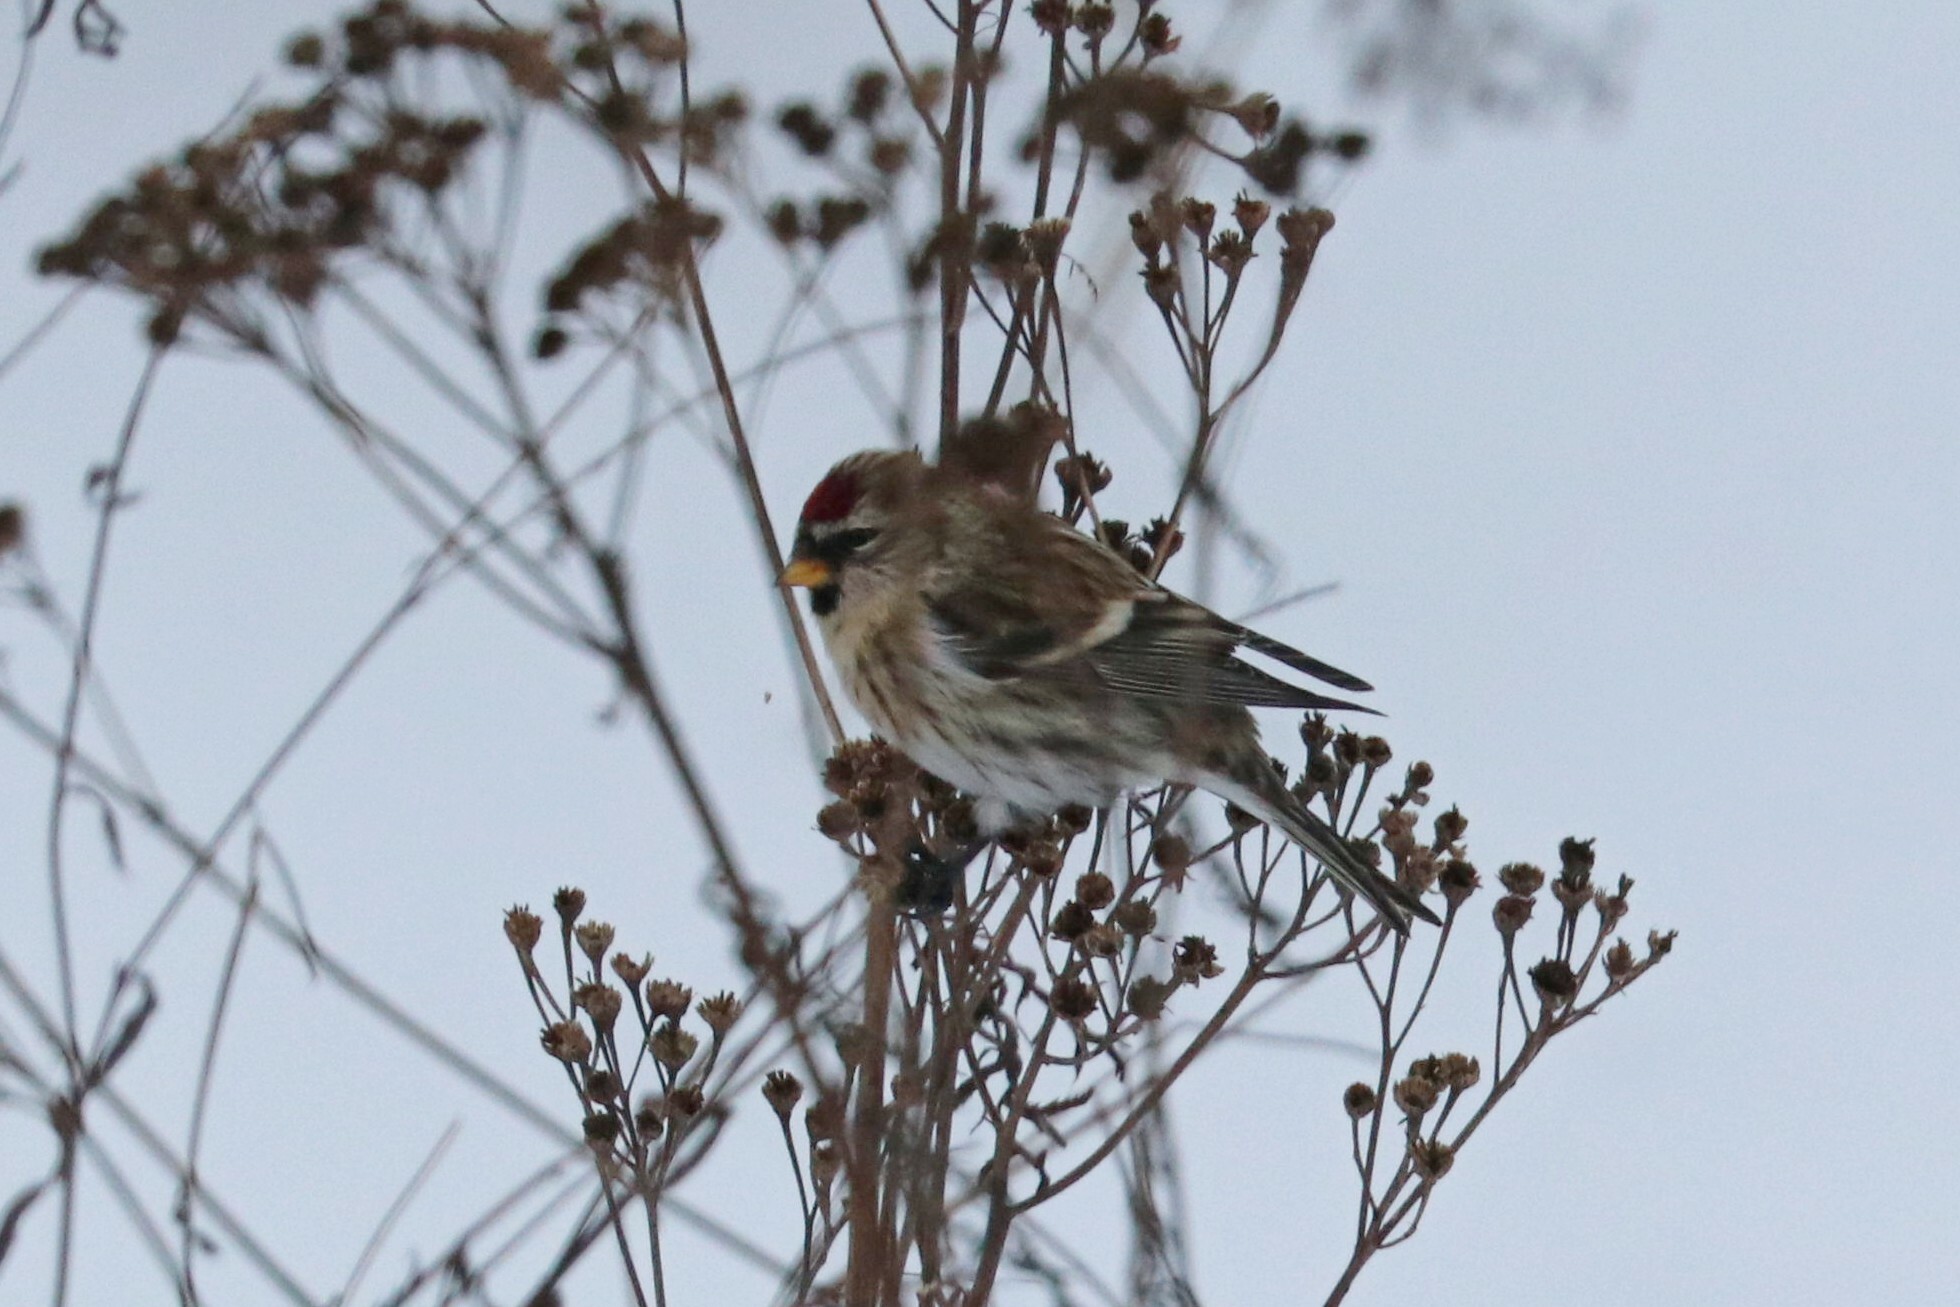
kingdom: Animalia
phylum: Chordata
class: Aves
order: Passeriformes
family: Fringillidae
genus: Acanthis
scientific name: Acanthis flammea
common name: Common redpoll
